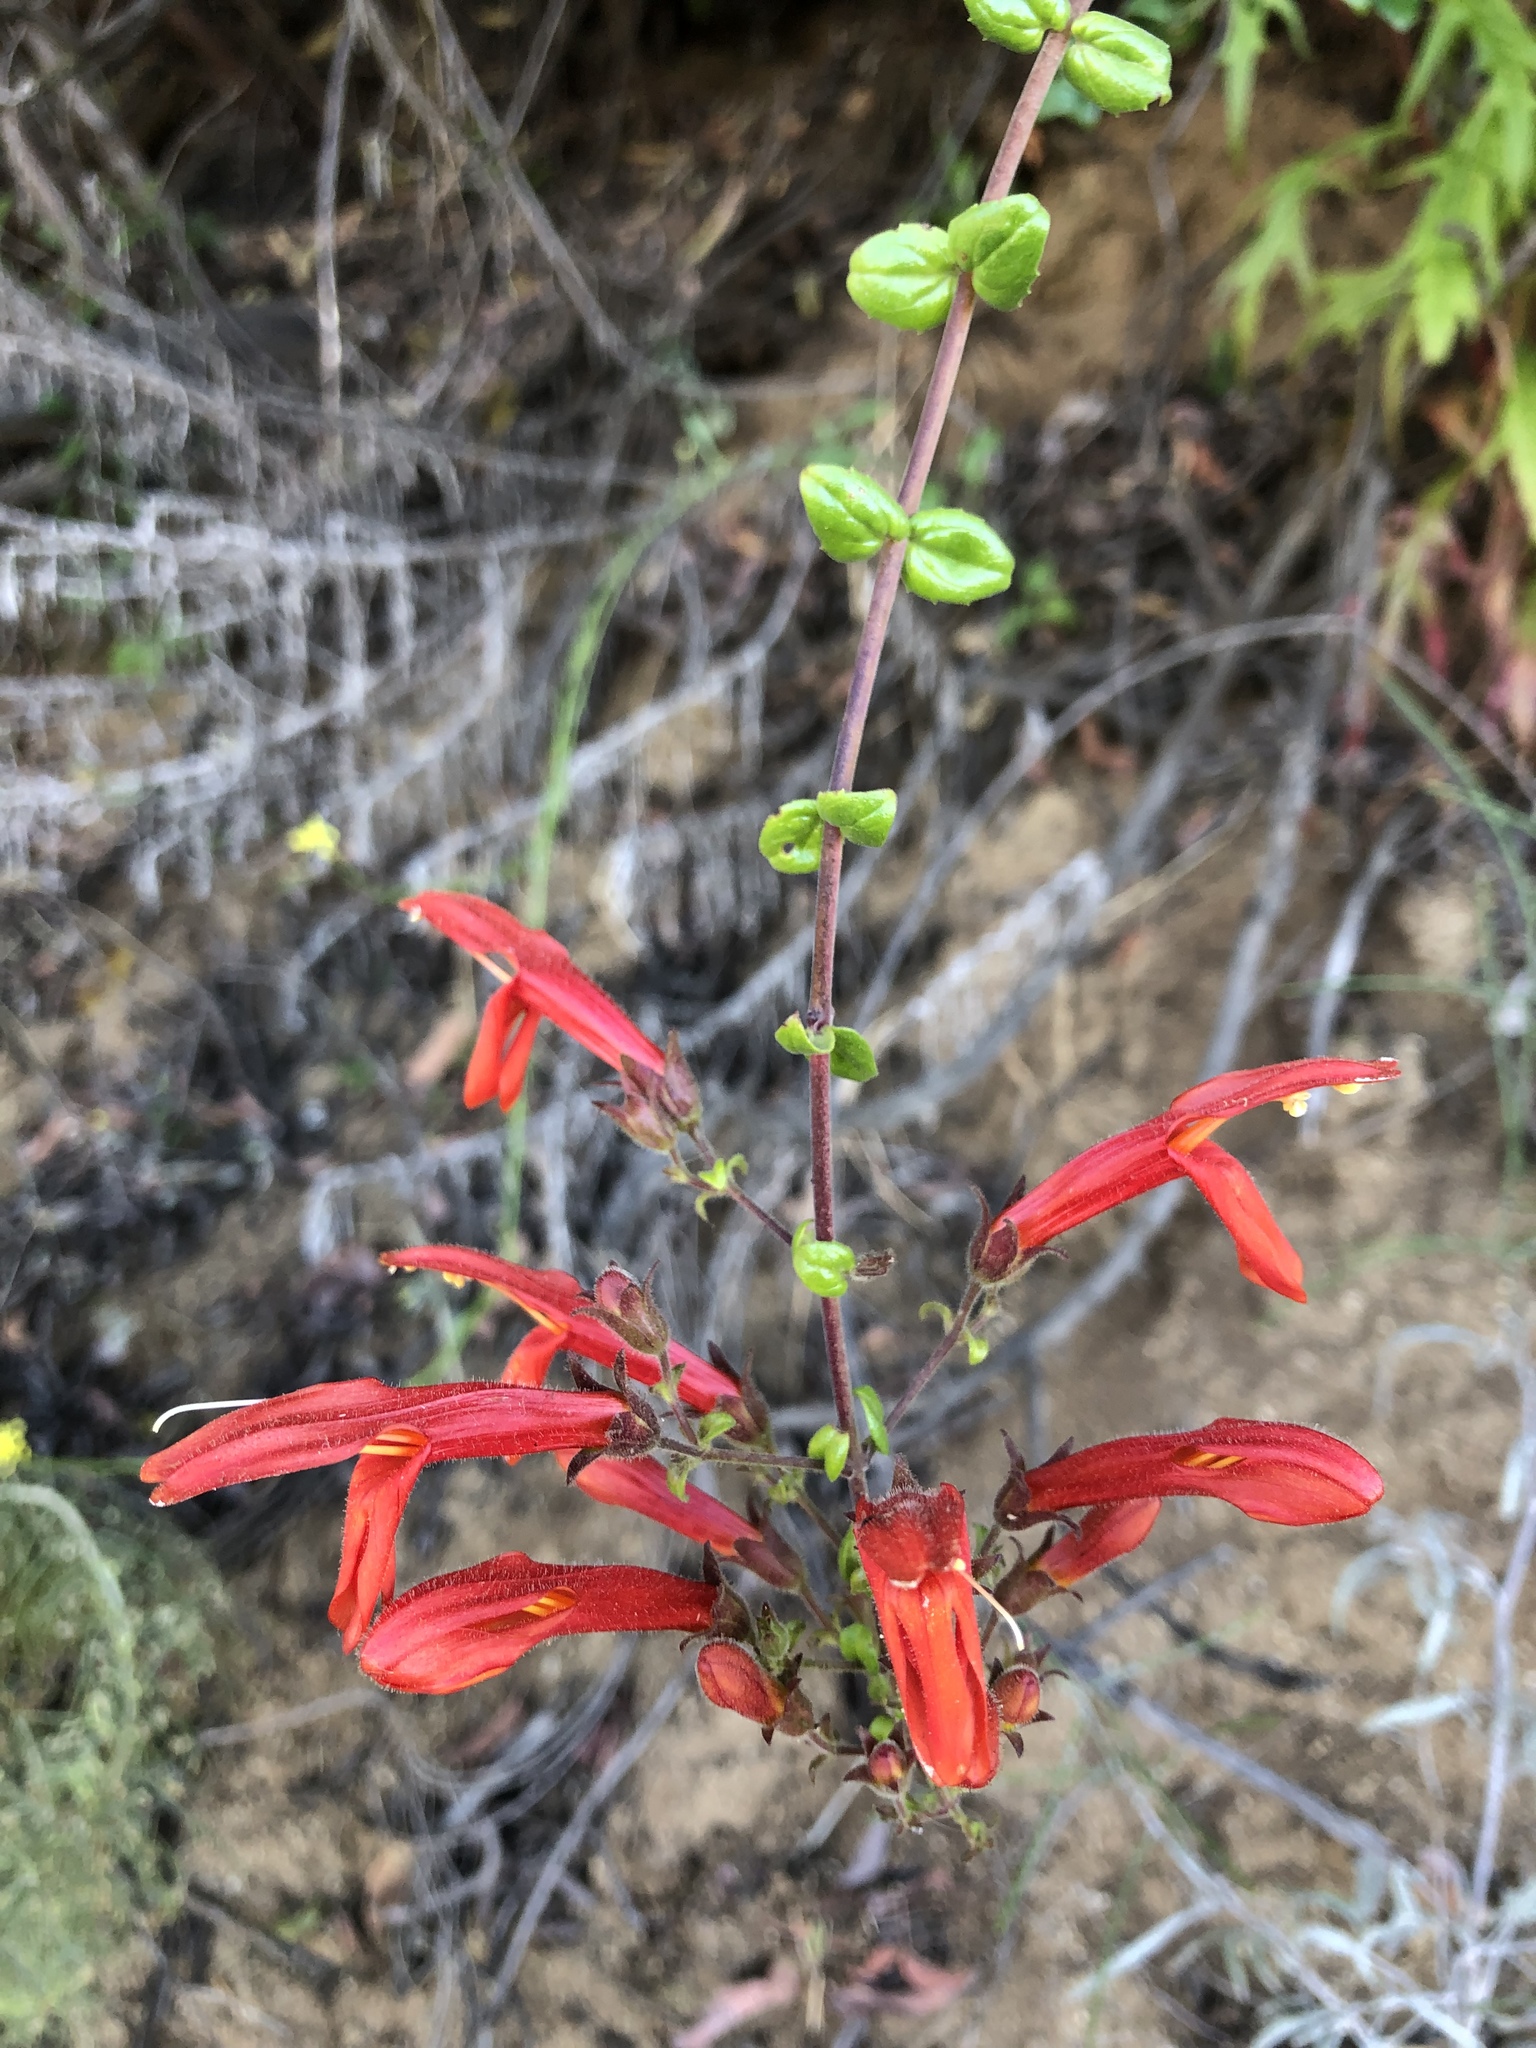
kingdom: Plantae
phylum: Tracheophyta
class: Magnoliopsida
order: Lamiales
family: Plantaginaceae
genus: Keckiella
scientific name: Keckiella cordifolia
